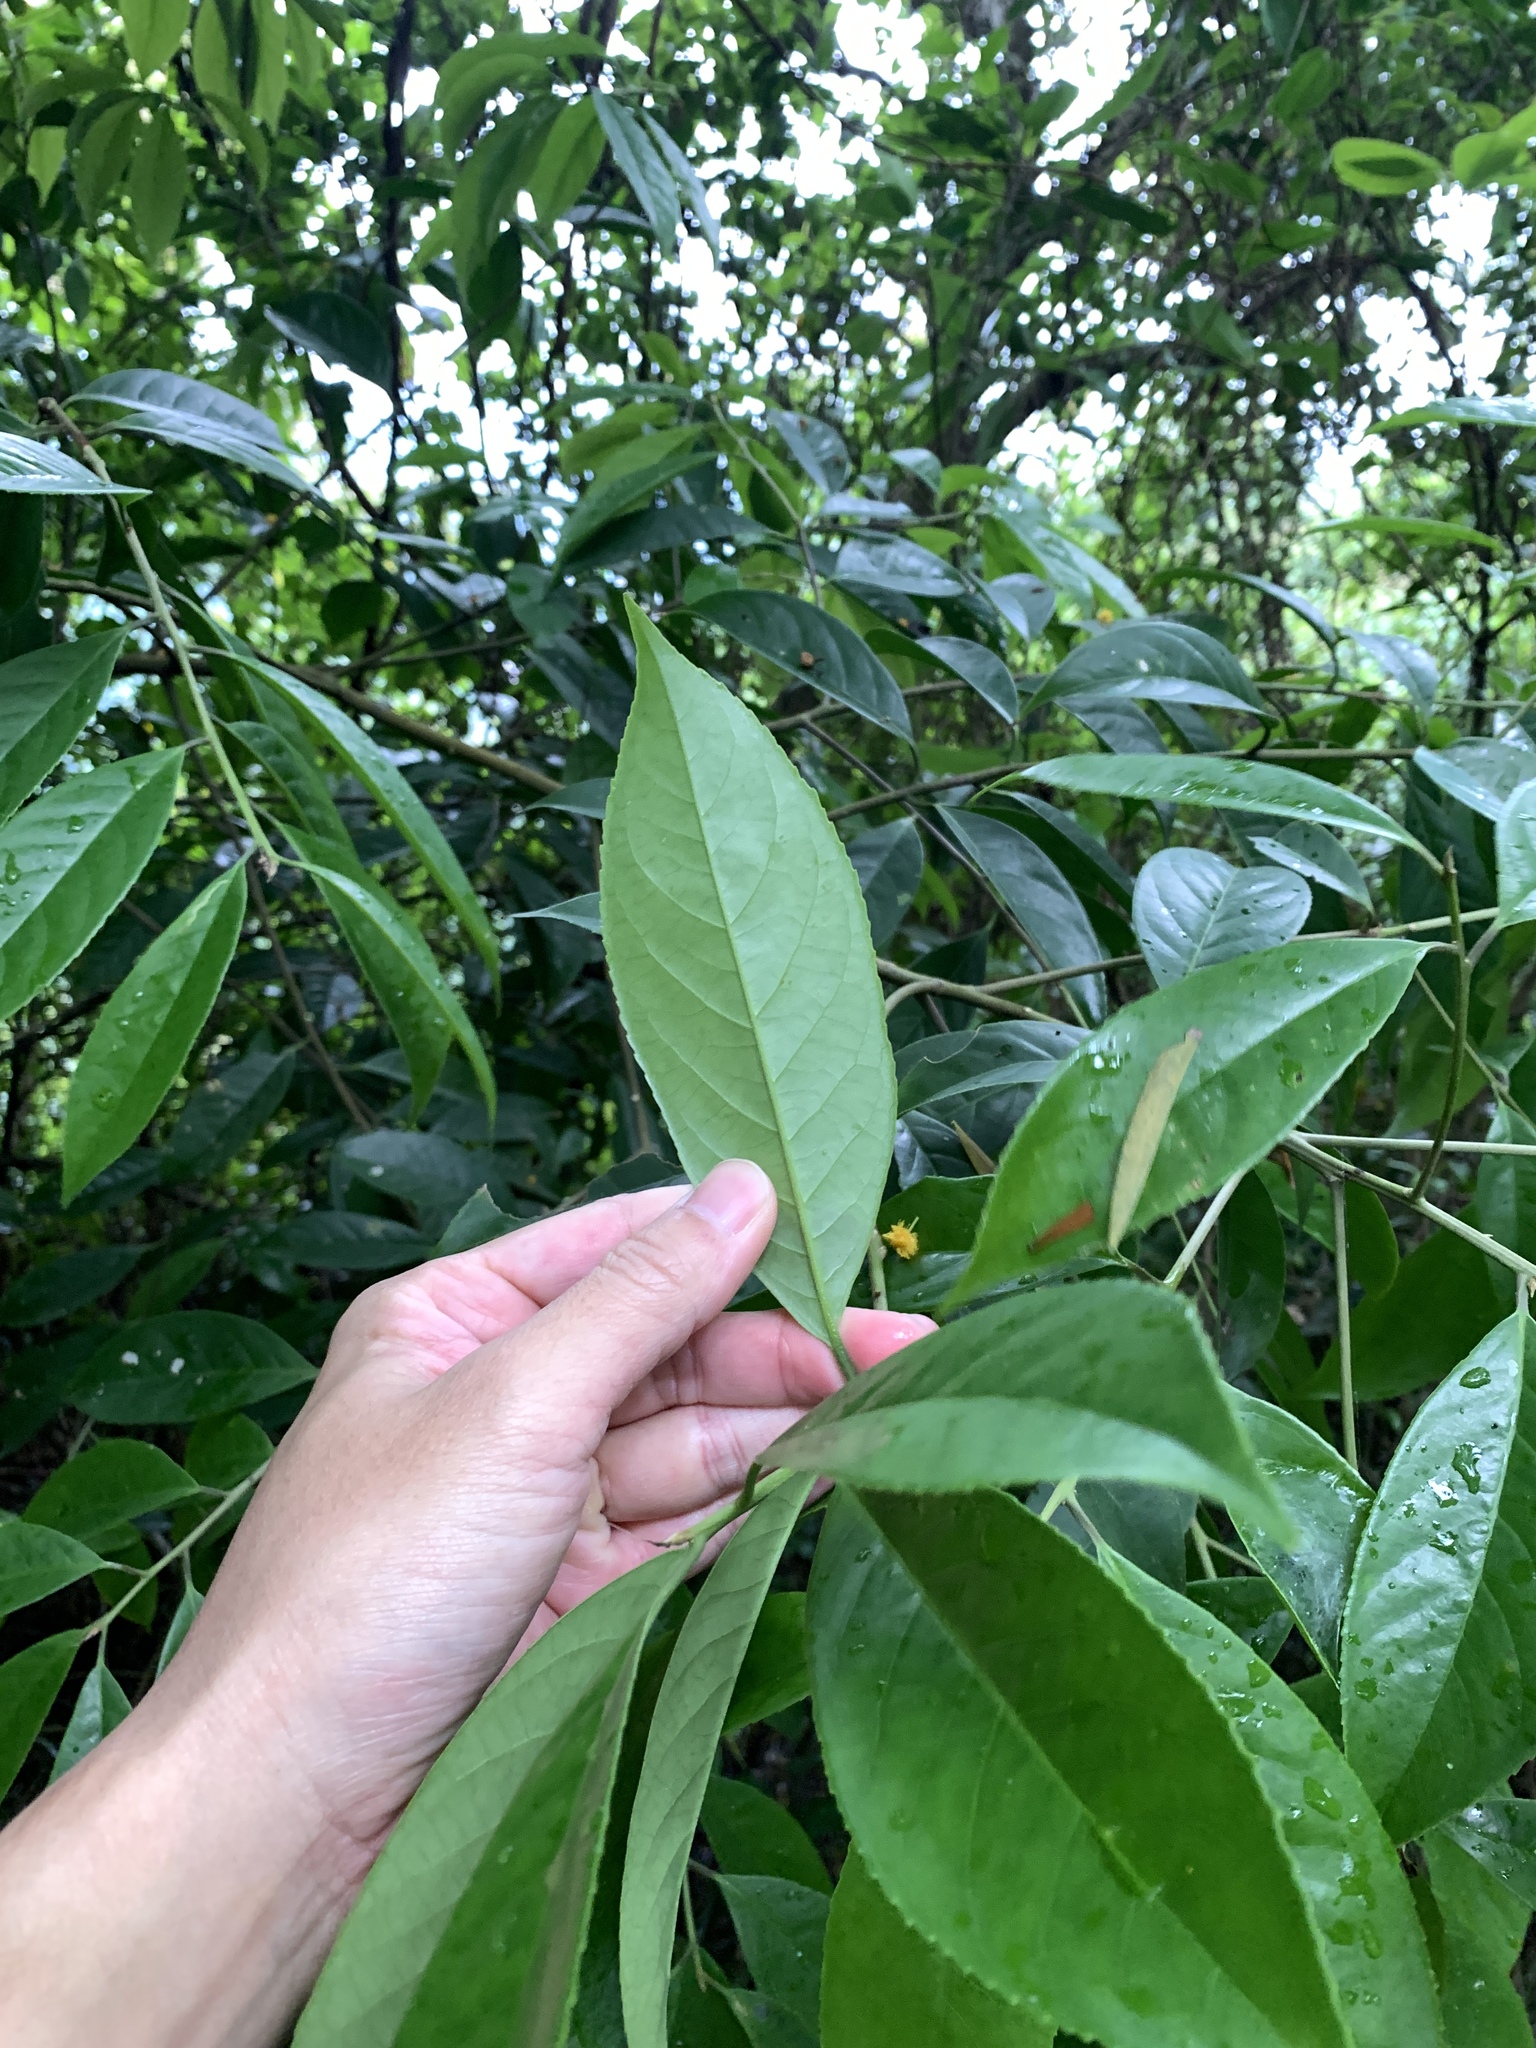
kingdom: Plantae
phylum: Tracheophyta
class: Magnoliopsida
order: Ericales
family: Symplocaceae
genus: Symplocos
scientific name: Symplocos acuminata
